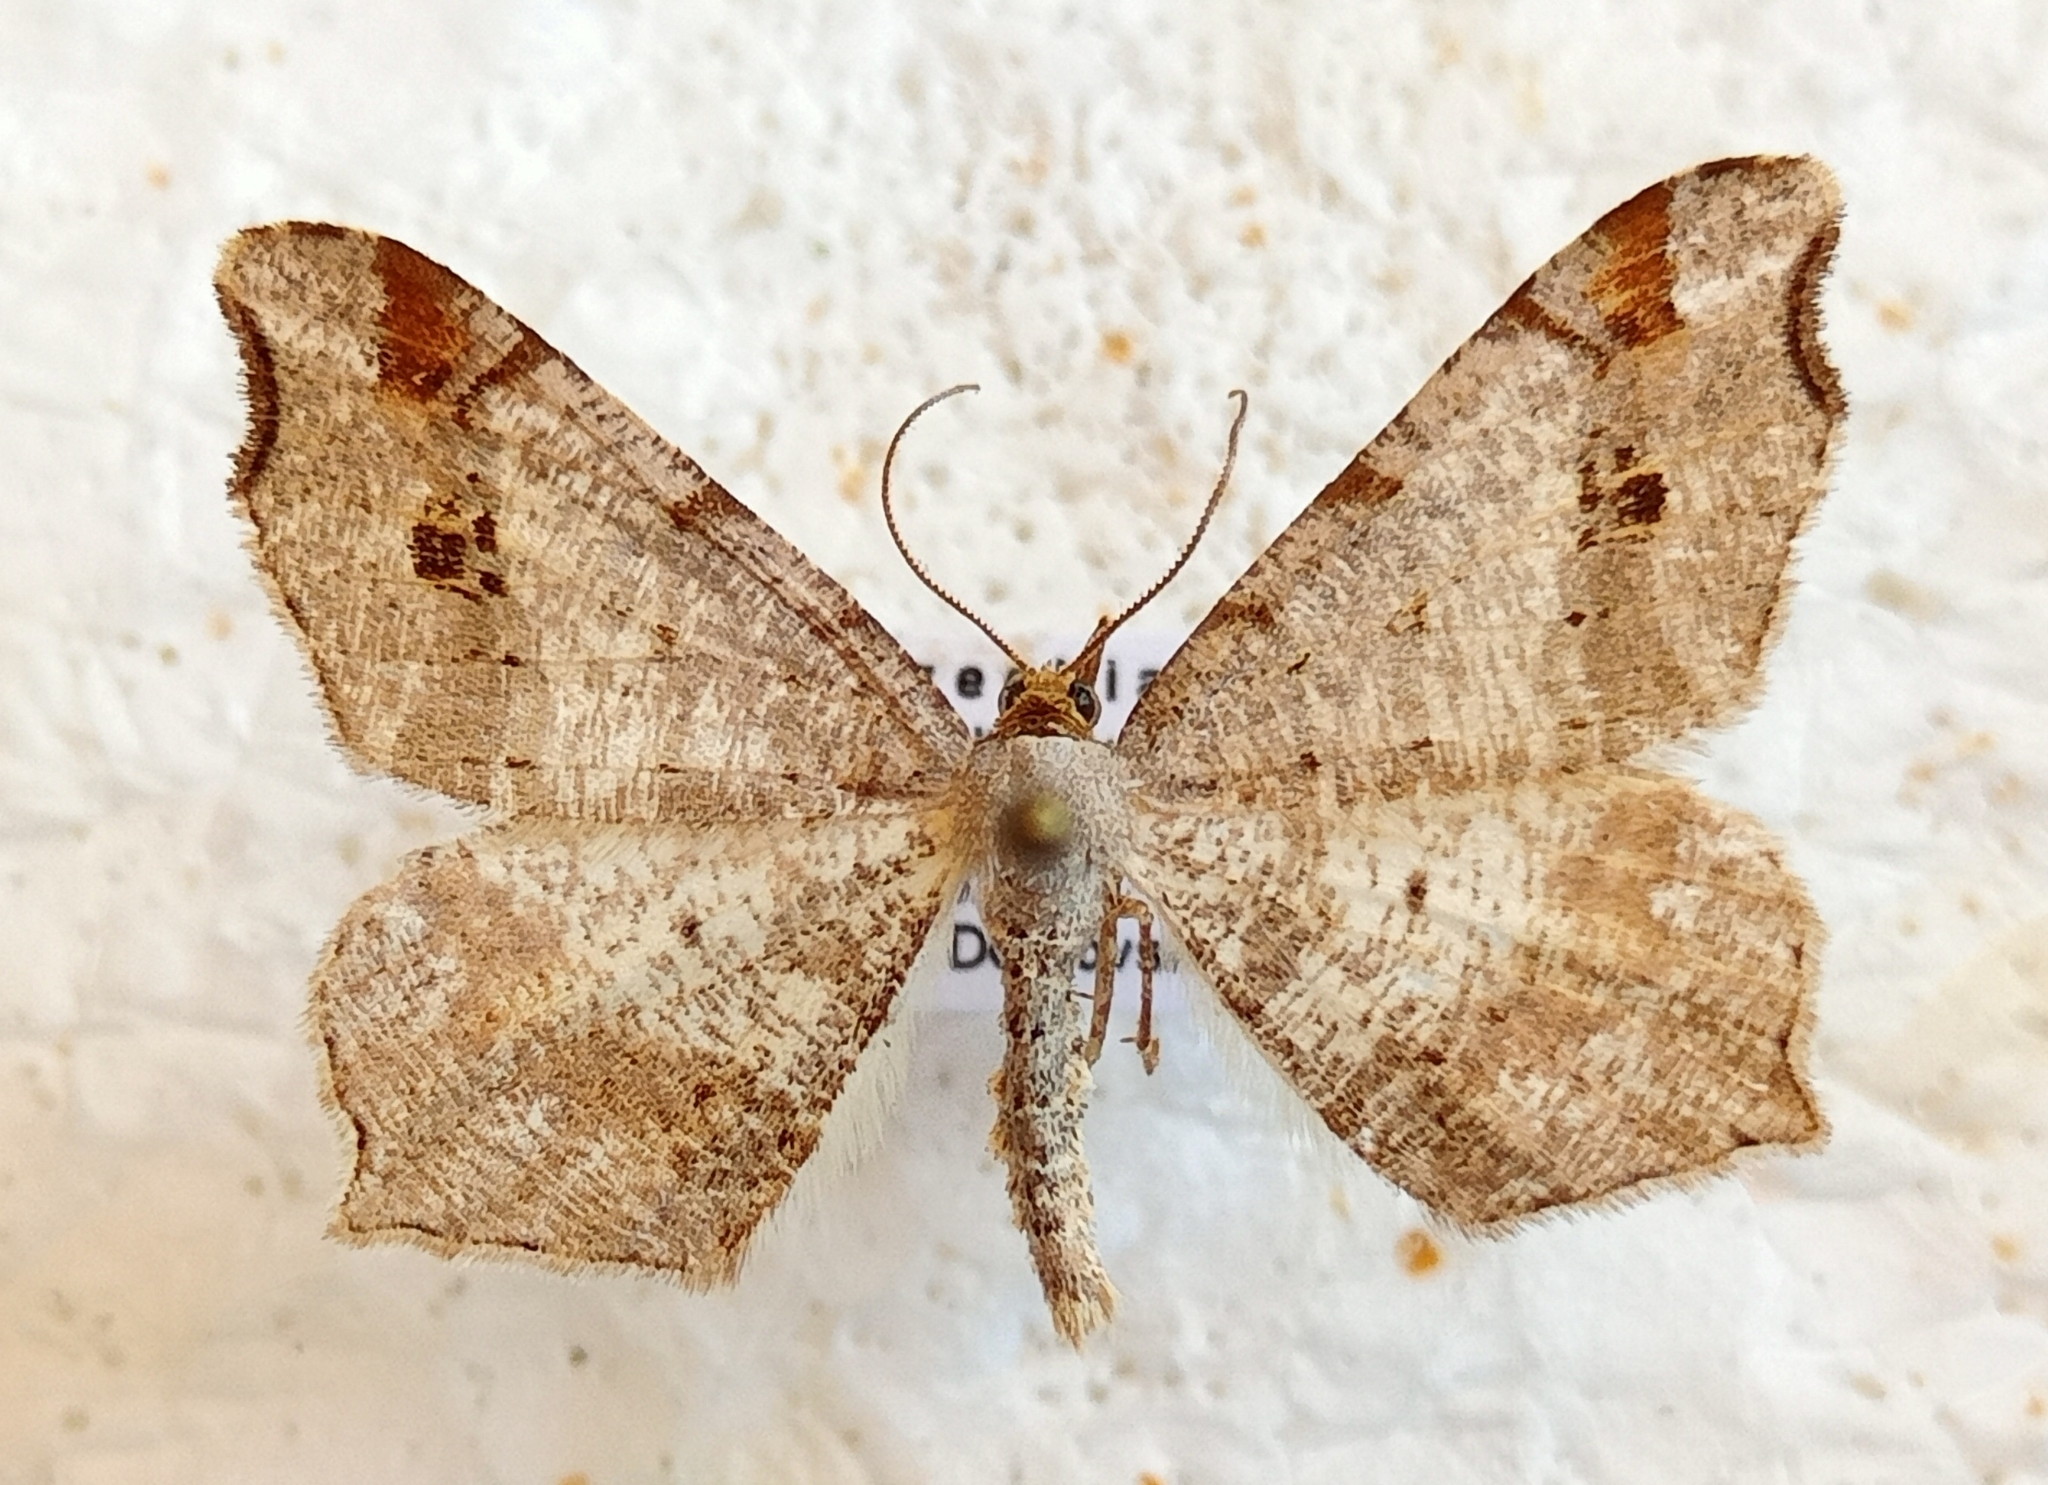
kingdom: Animalia
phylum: Arthropoda
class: Insecta
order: Lepidoptera
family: Geometridae
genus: Macaria
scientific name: Macaria alternata
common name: Sharp-angled peacock
